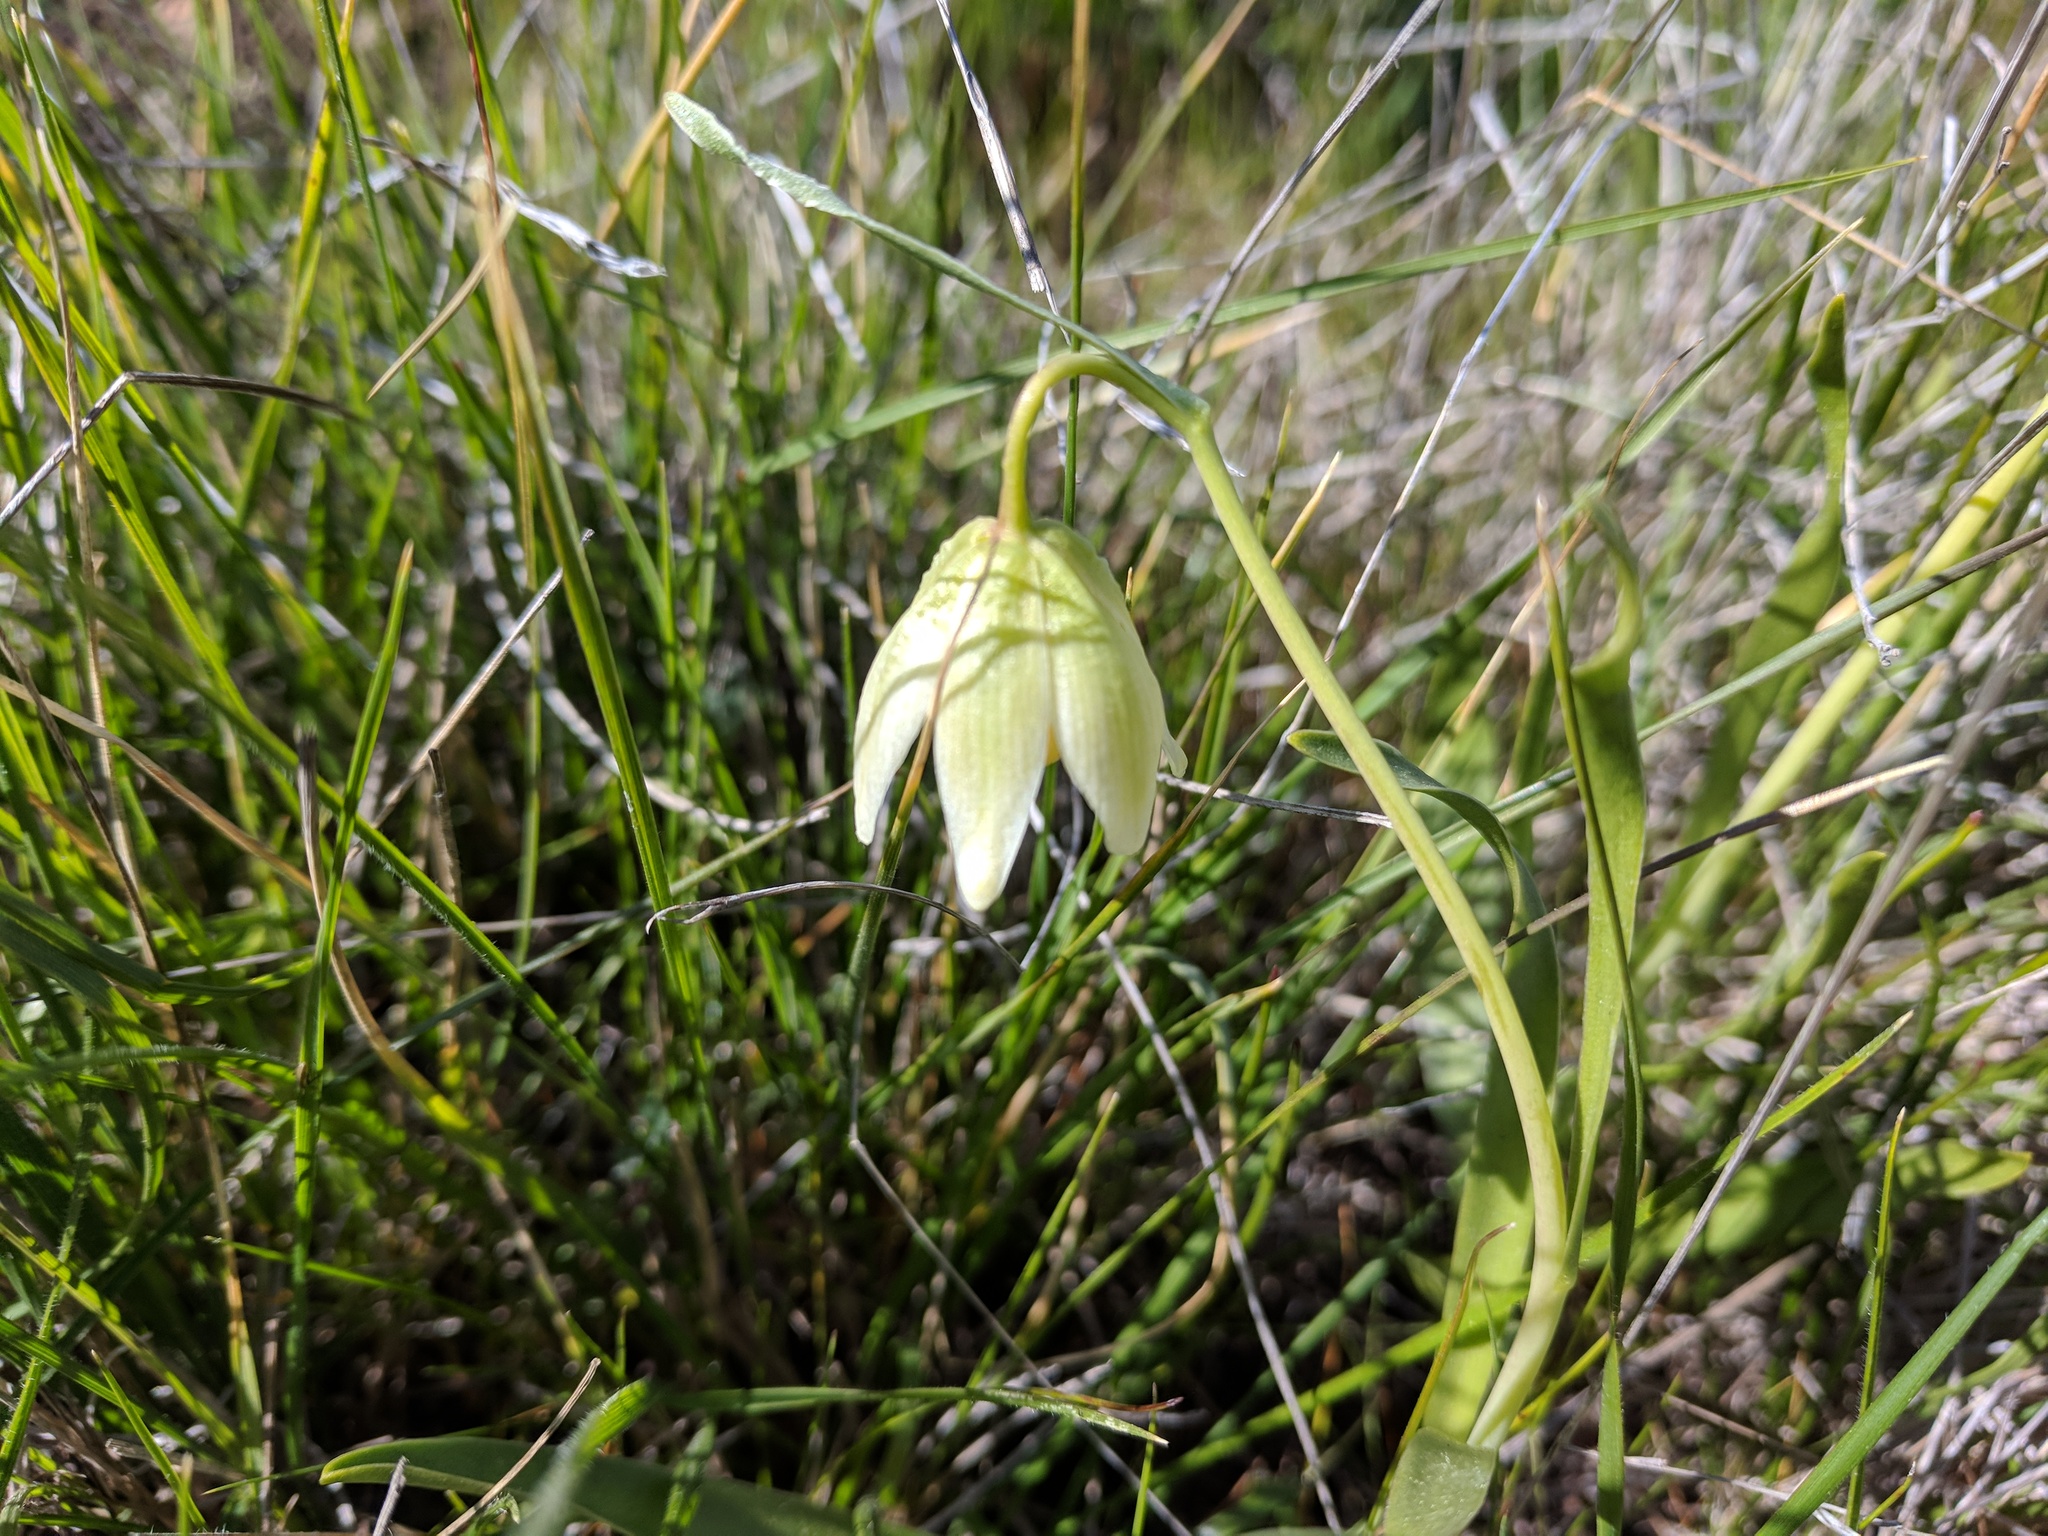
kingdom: Plantae
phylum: Tracheophyta
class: Liliopsida
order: Liliales
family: Liliaceae
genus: Fritillaria
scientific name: Fritillaria liliacea
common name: Fragrant fritillary
